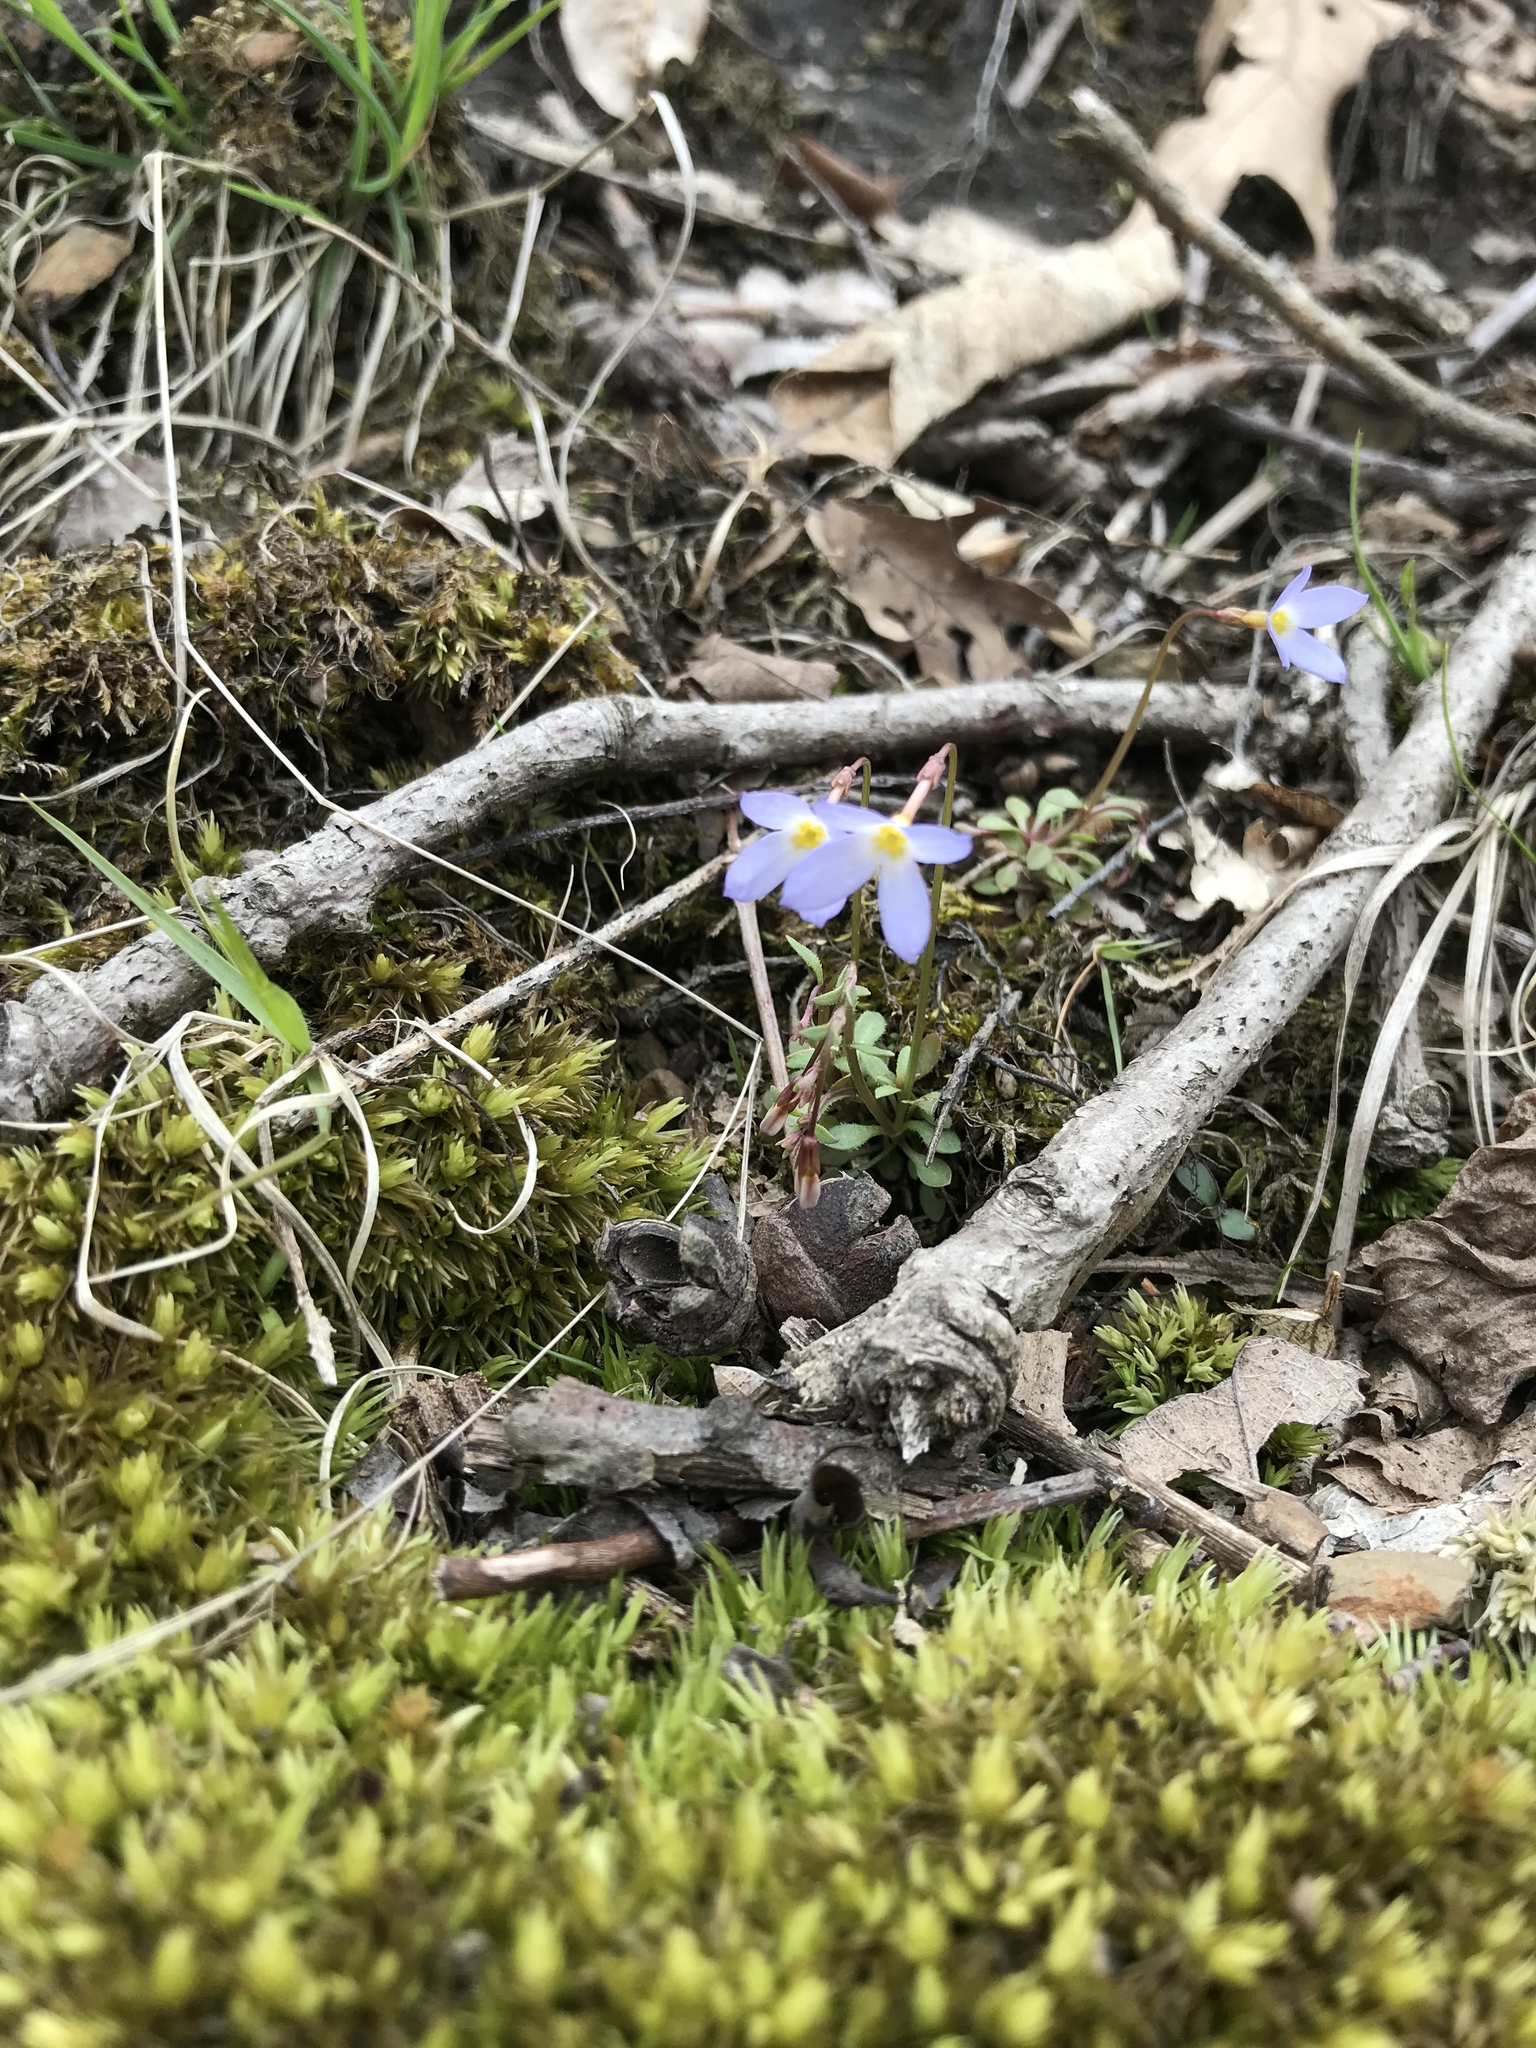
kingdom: Plantae
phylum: Tracheophyta
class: Magnoliopsida
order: Gentianales
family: Rubiaceae
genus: Houstonia
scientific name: Houstonia caerulea
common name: Bluets
